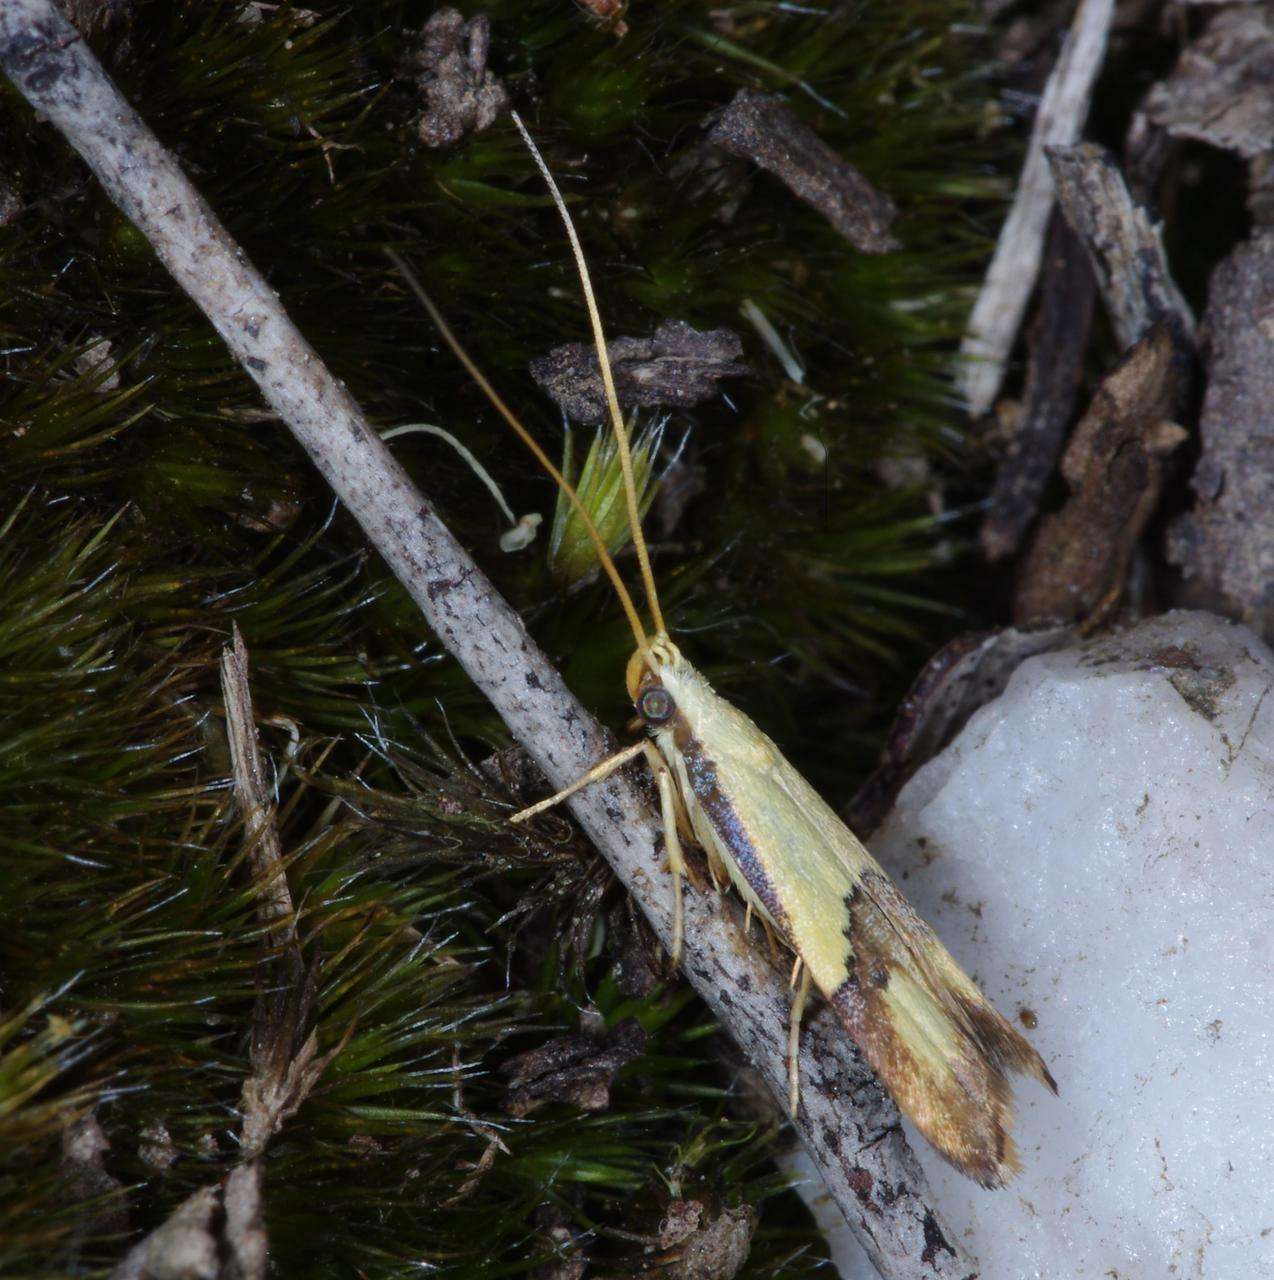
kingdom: Animalia
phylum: Arthropoda
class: Insecta
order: Lepidoptera
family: Lecithoceridae
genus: Crocanthes
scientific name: Crocanthes glycina
